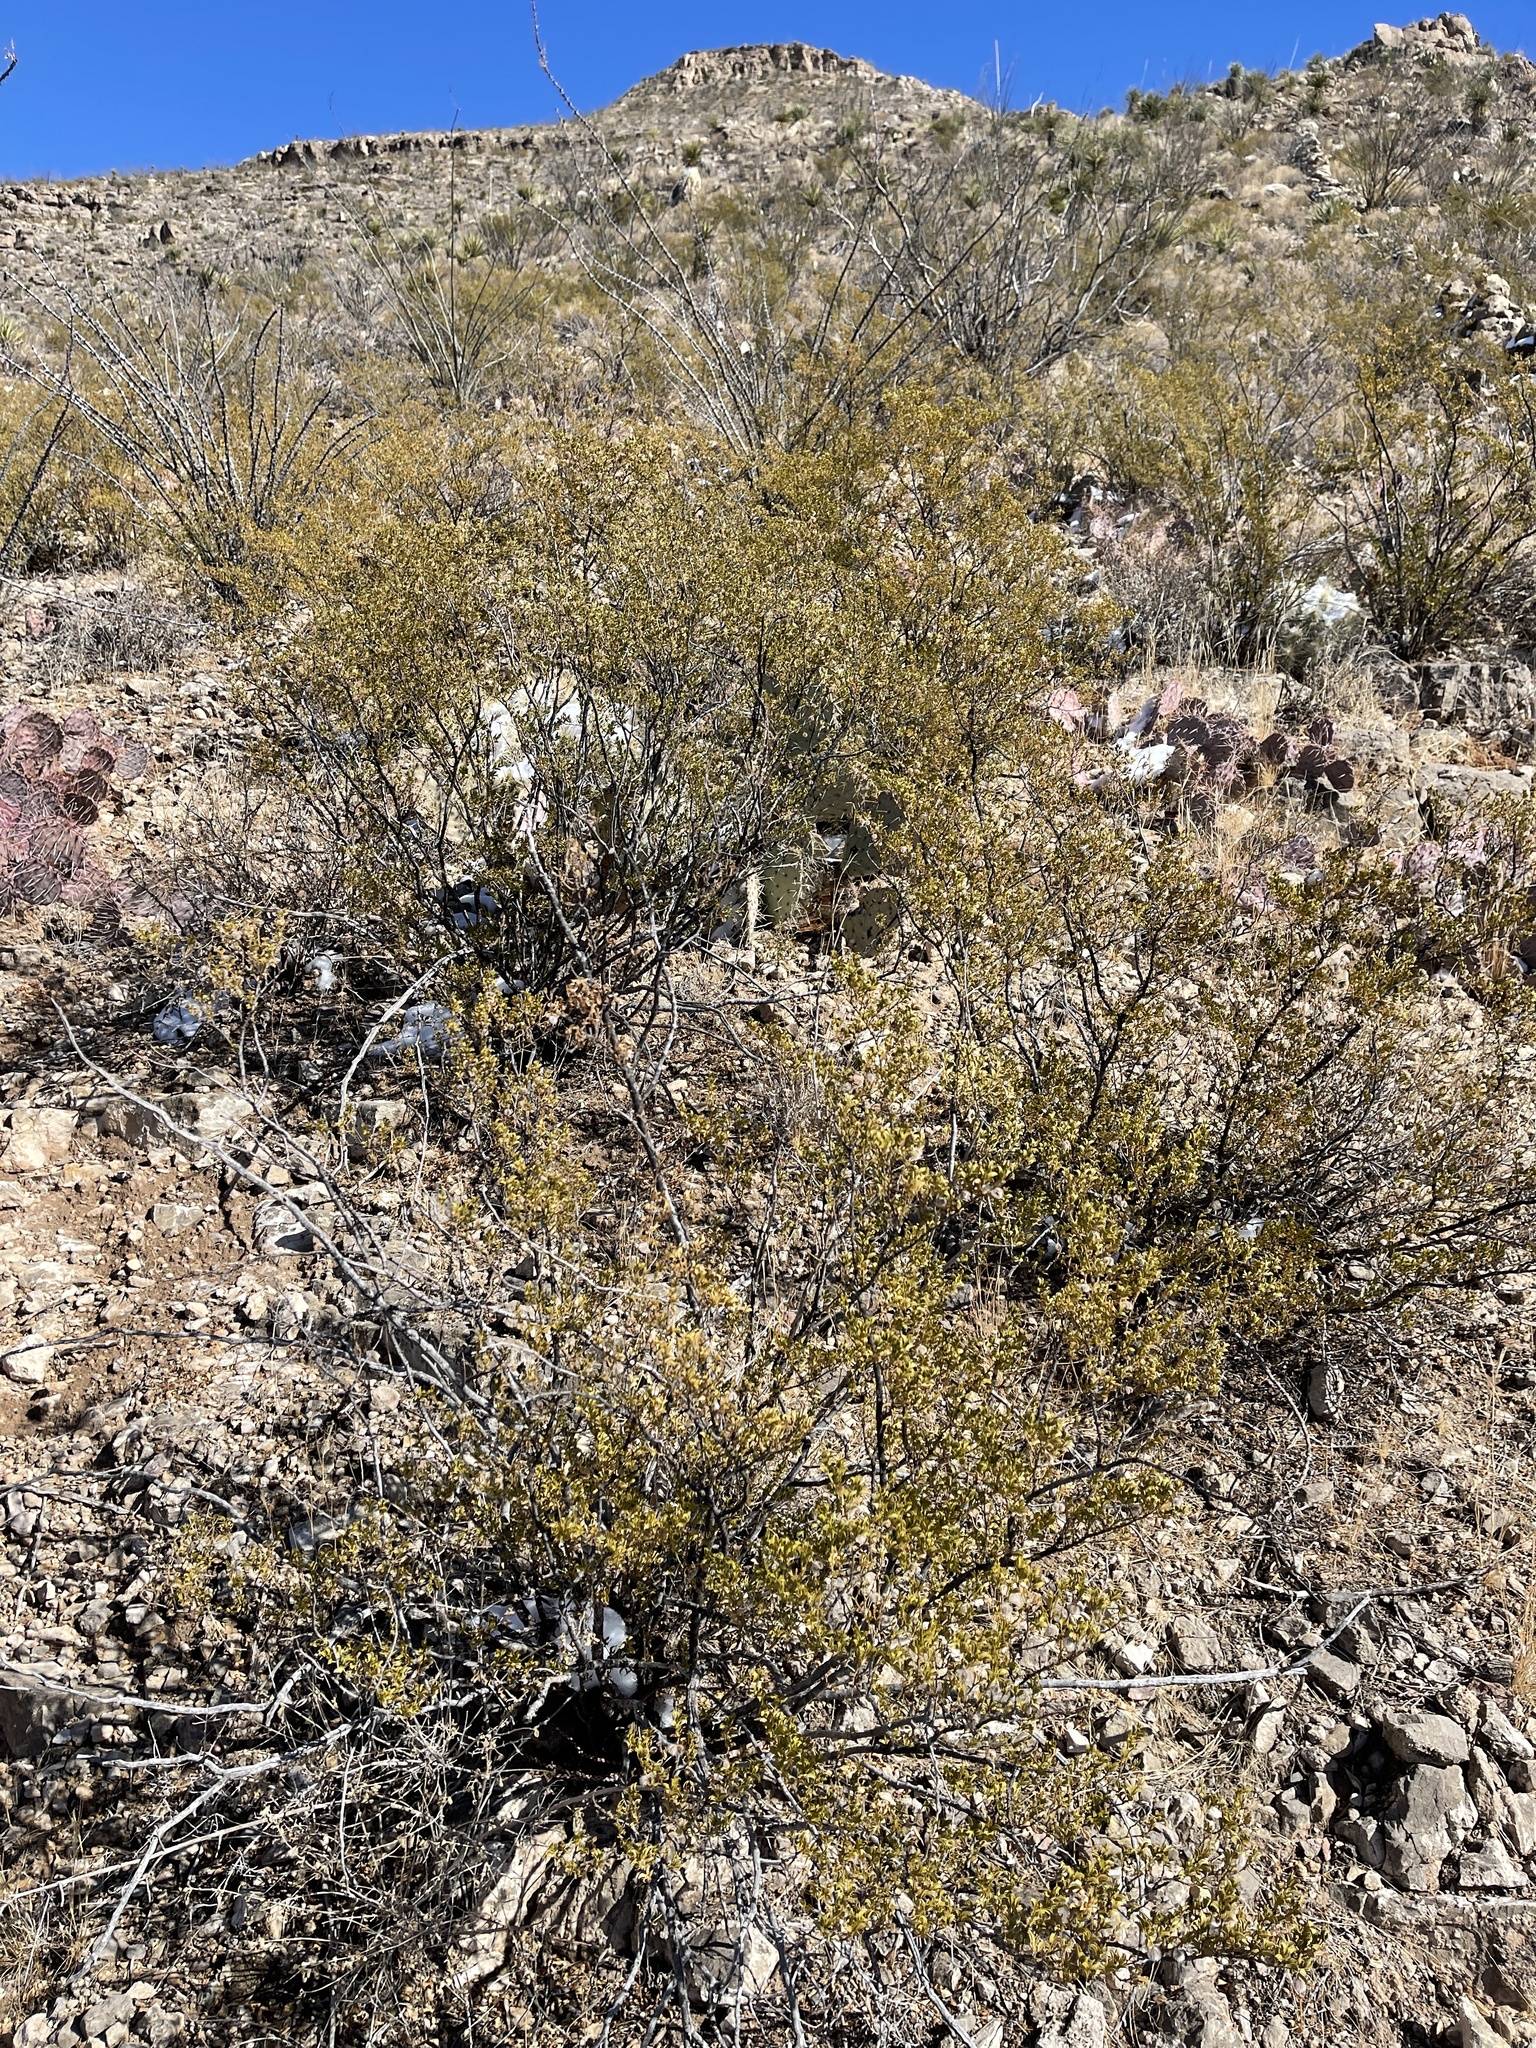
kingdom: Plantae
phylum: Tracheophyta
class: Magnoliopsida
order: Zygophyllales
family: Zygophyllaceae
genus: Larrea
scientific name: Larrea tridentata
